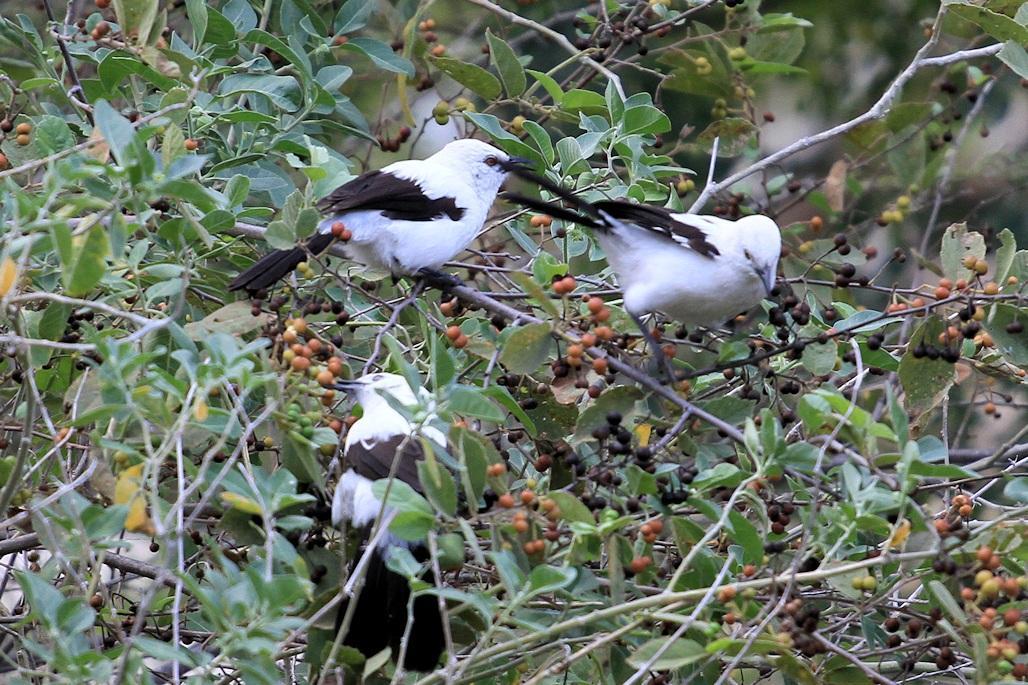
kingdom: Animalia
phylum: Chordata
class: Aves
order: Passeriformes
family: Leiothrichidae
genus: Turdoides
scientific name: Turdoides bicolor
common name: Southern pied babbler
